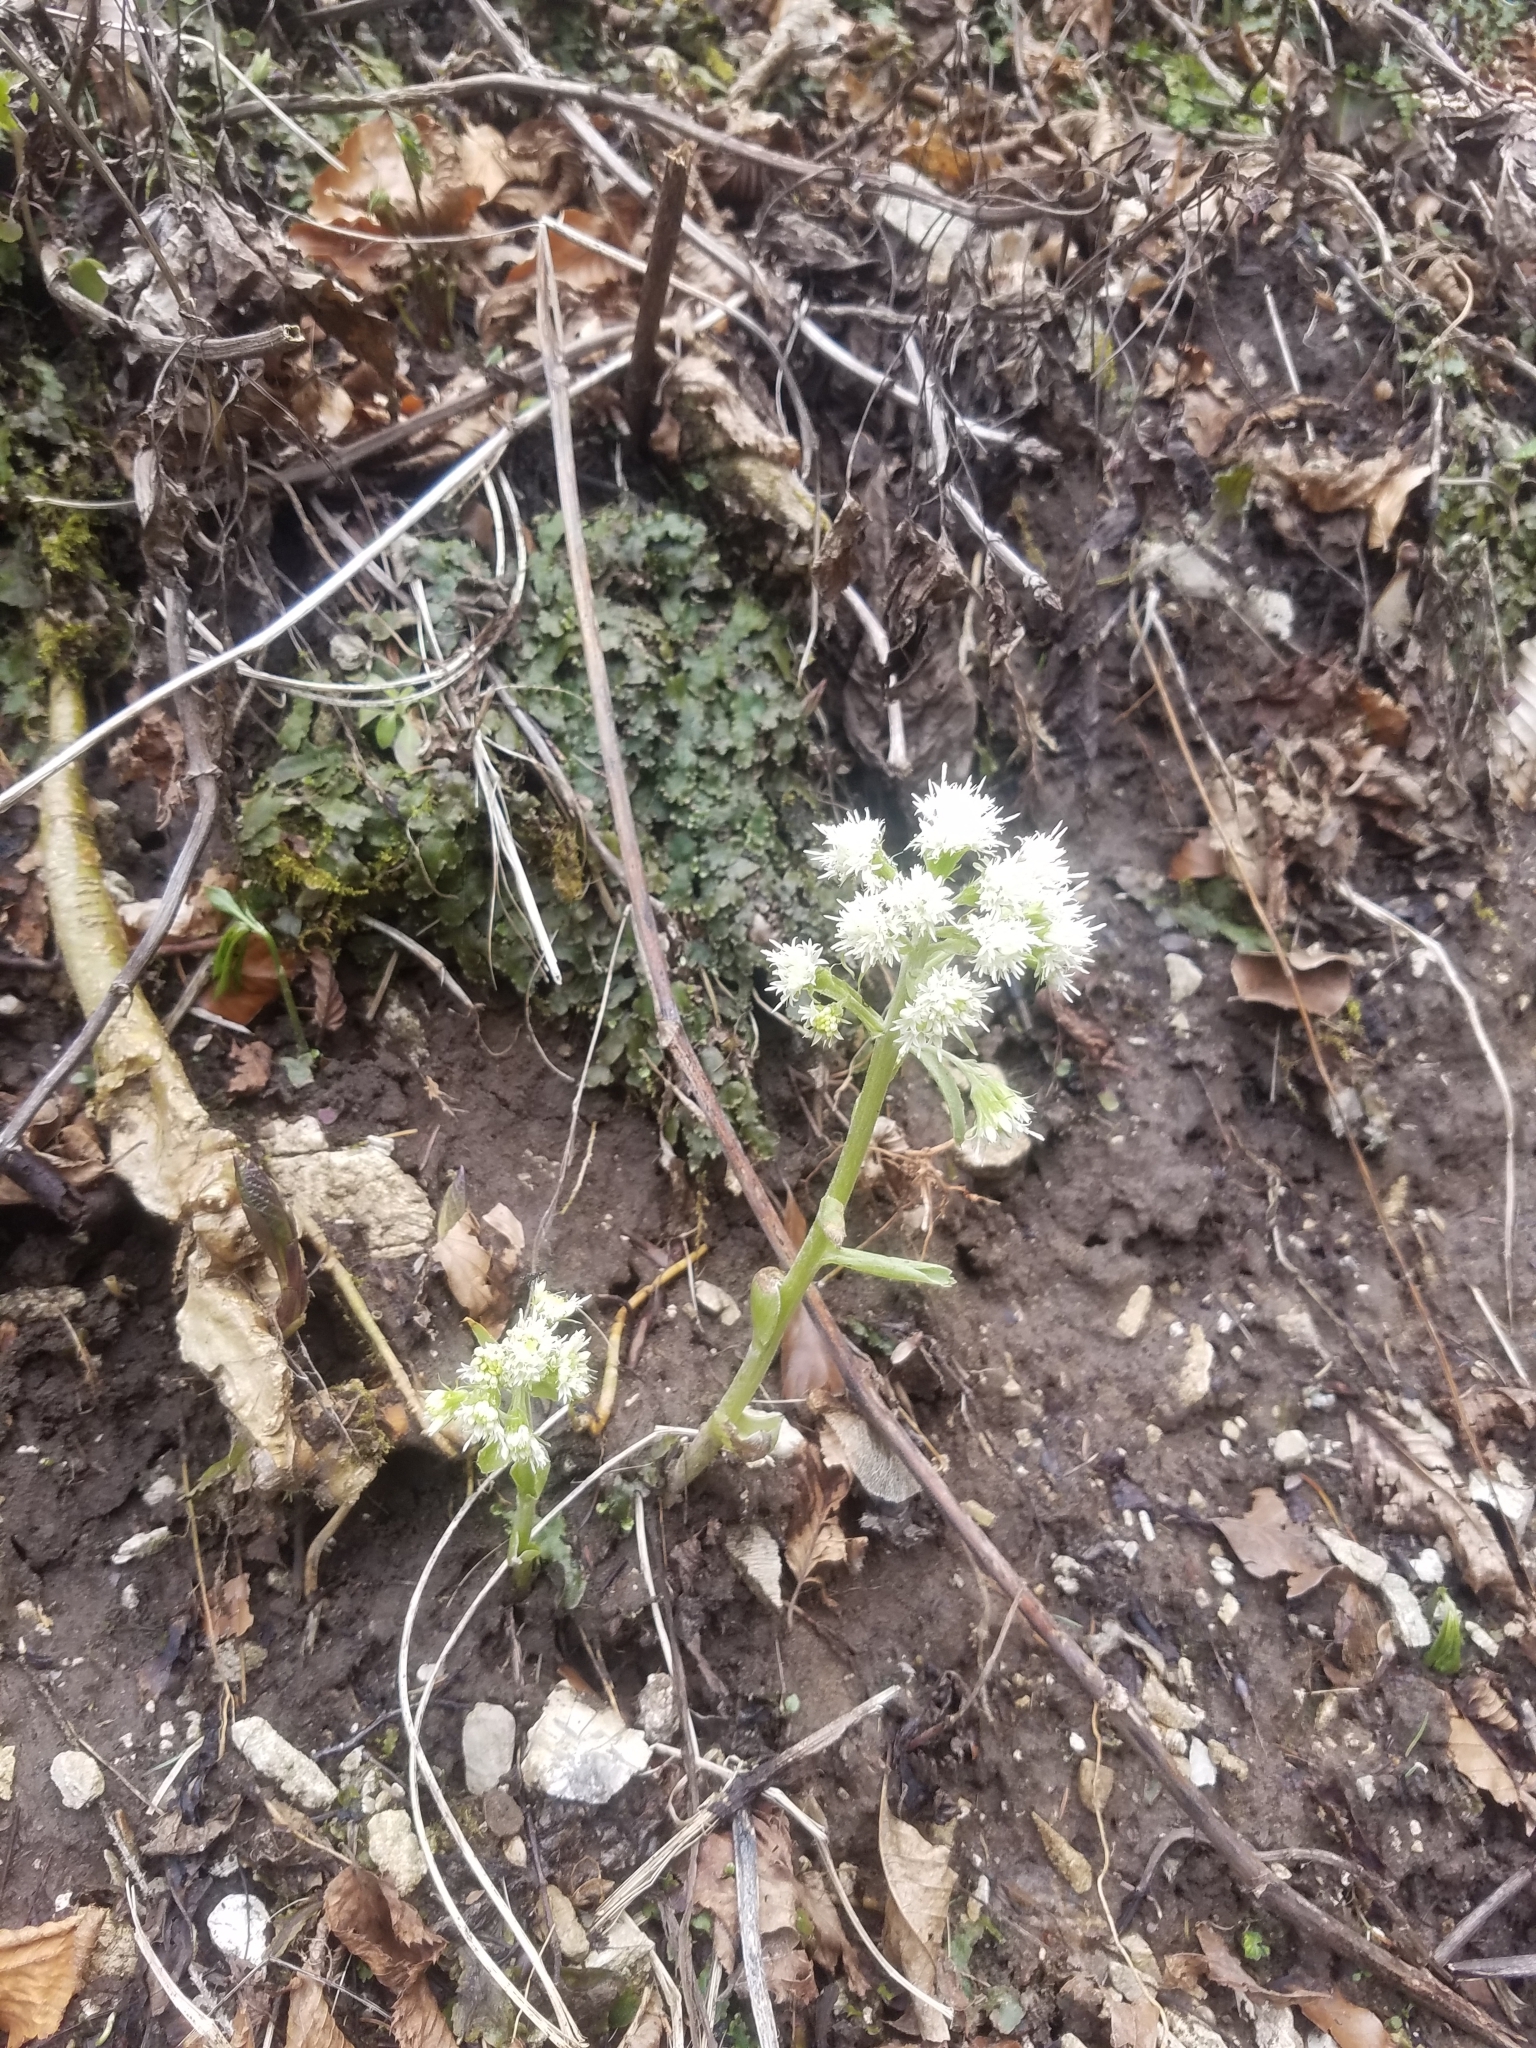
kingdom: Plantae
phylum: Tracheophyta
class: Magnoliopsida
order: Asterales
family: Asteraceae
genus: Petasites
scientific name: Petasites albus
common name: White butterbur
